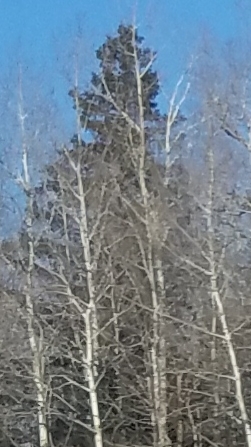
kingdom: Plantae
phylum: Tracheophyta
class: Magnoliopsida
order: Malpighiales
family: Salicaceae
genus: Populus
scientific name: Populus tremuloides
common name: Quaking aspen
